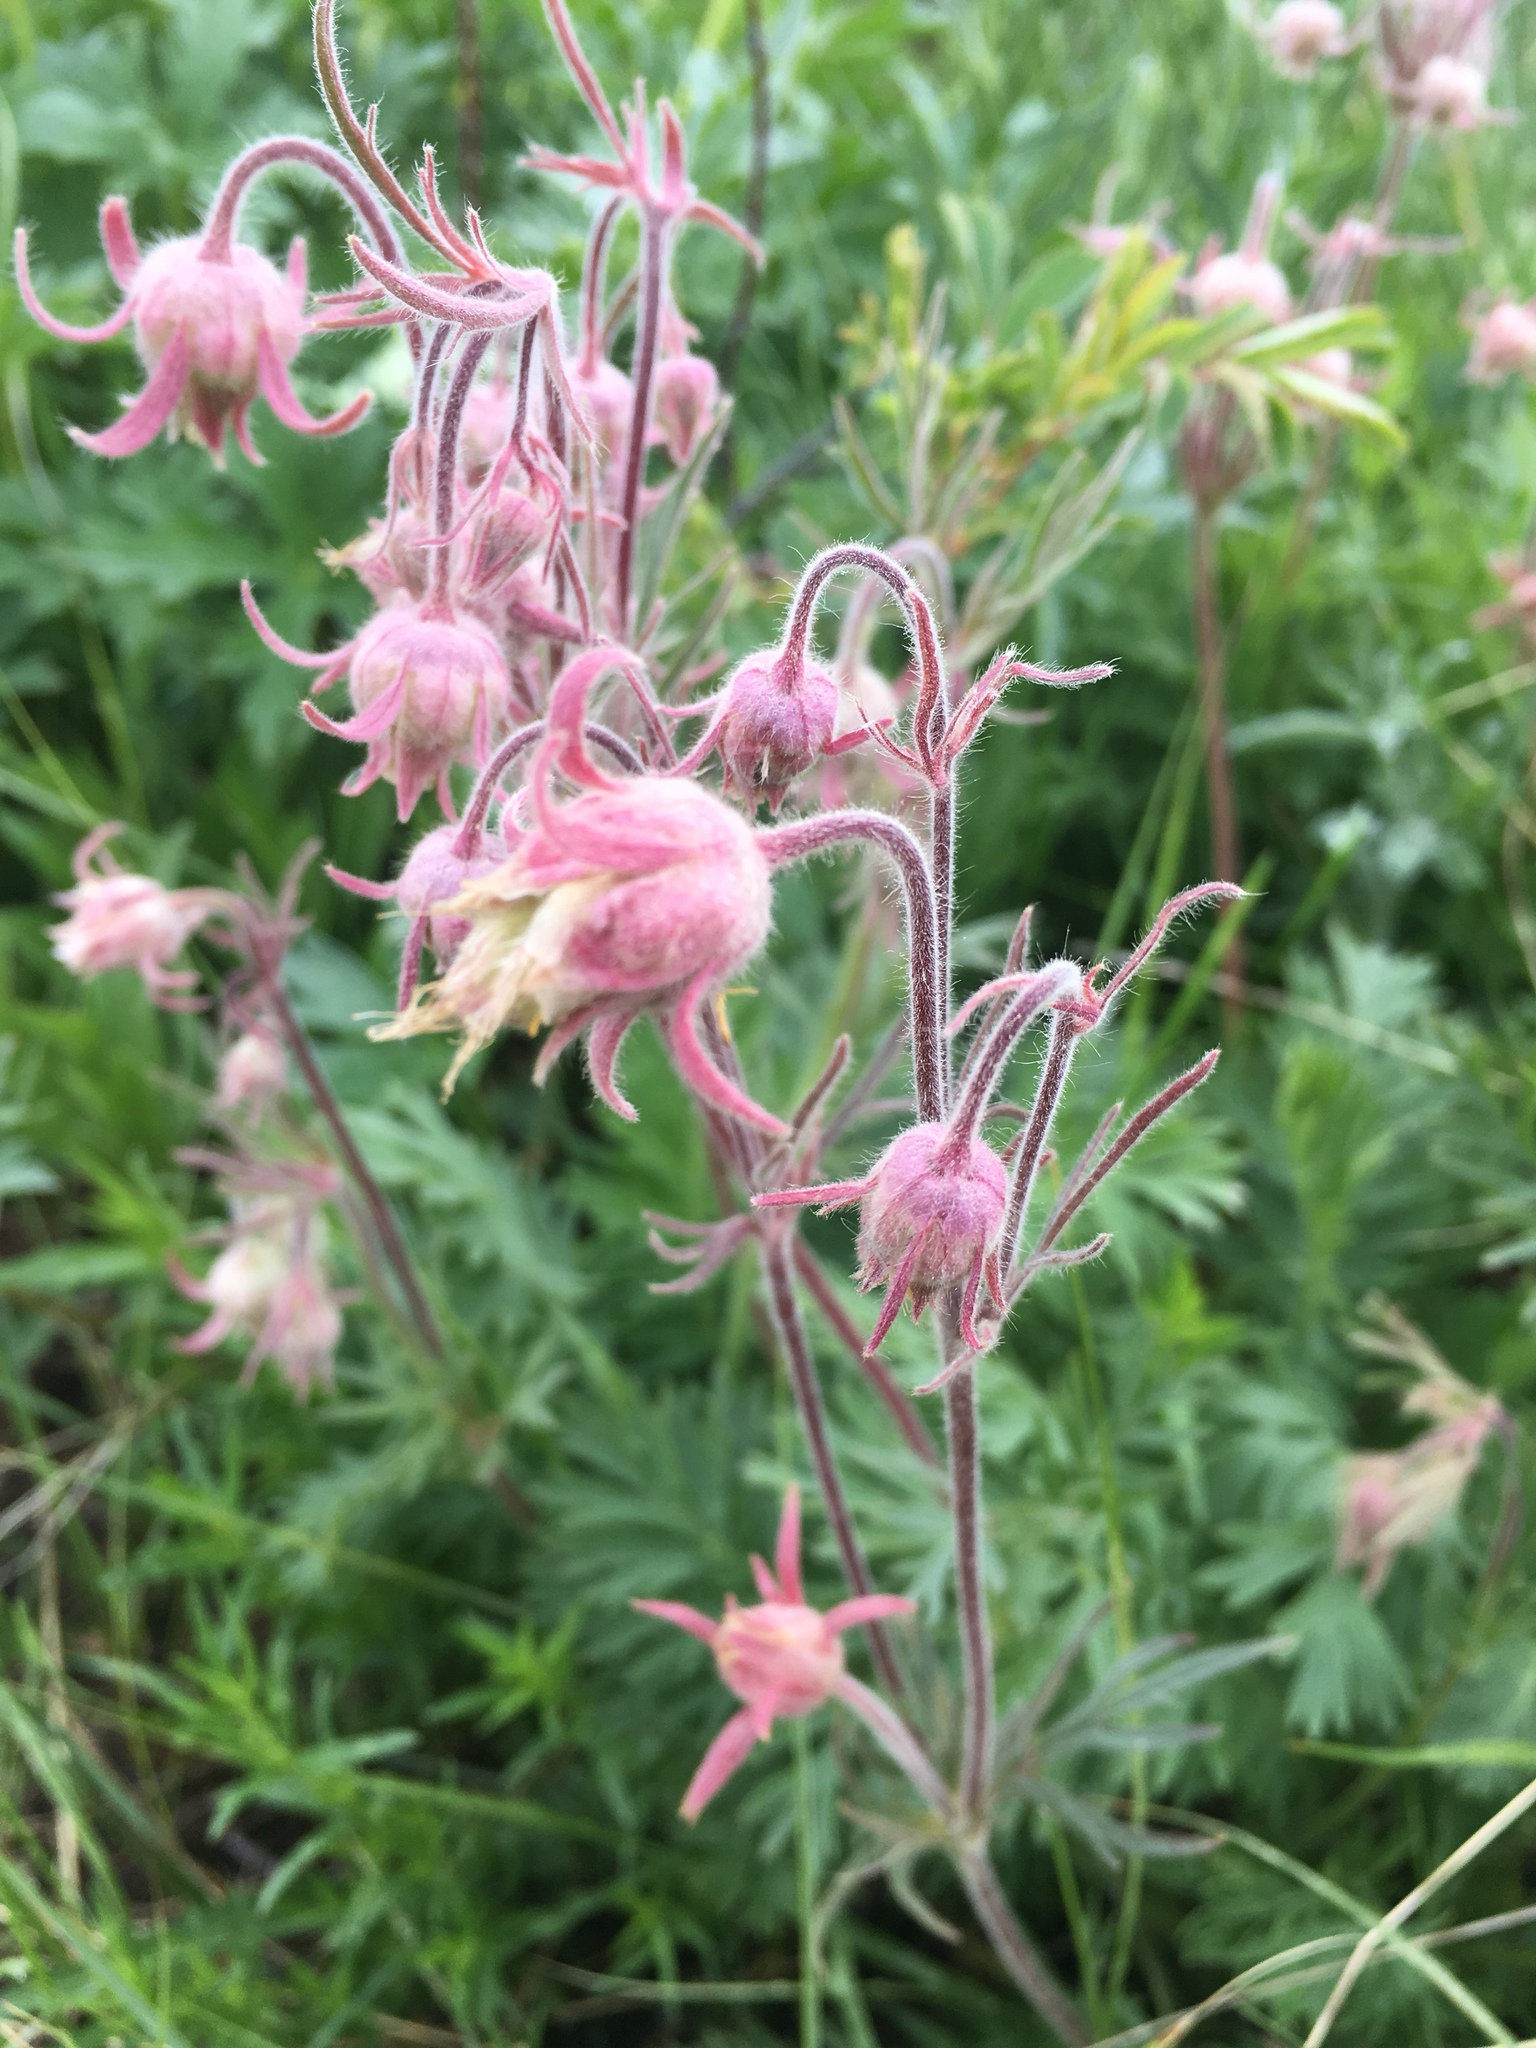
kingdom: Plantae
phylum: Tracheophyta
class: Magnoliopsida
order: Rosales
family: Rosaceae
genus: Geum
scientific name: Geum triflorum
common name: Old man's whiskers
